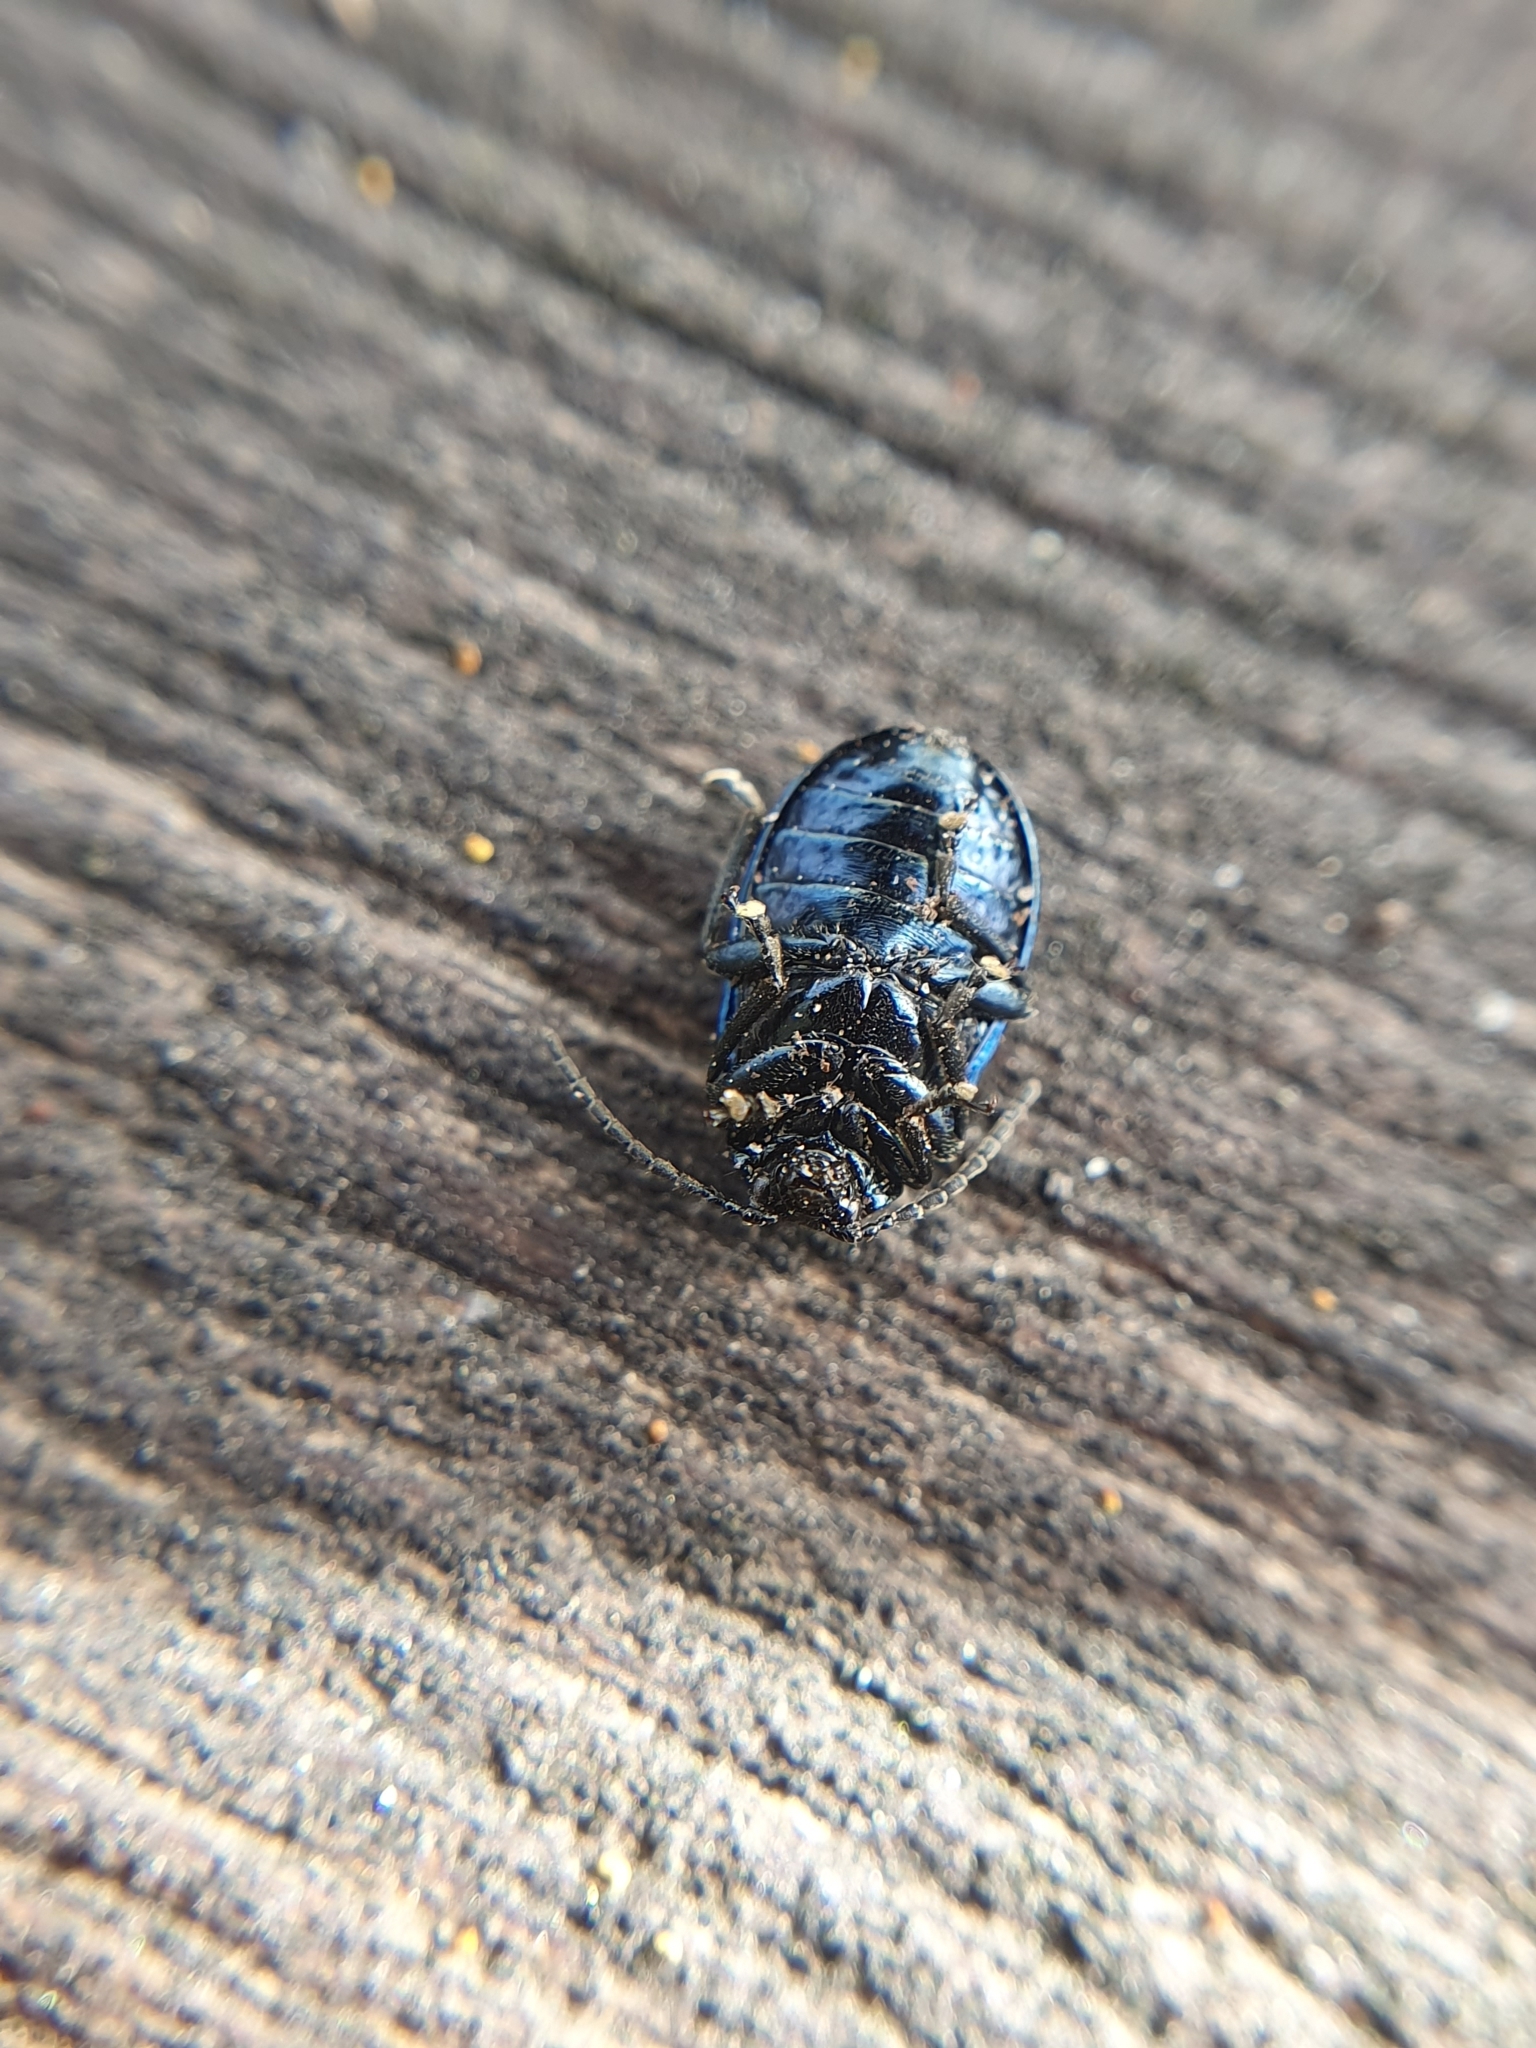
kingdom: Animalia
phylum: Arthropoda
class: Insecta
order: Coleoptera
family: Chrysomelidae
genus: Agelastica
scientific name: Agelastica alni
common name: Alder leaf beetle
